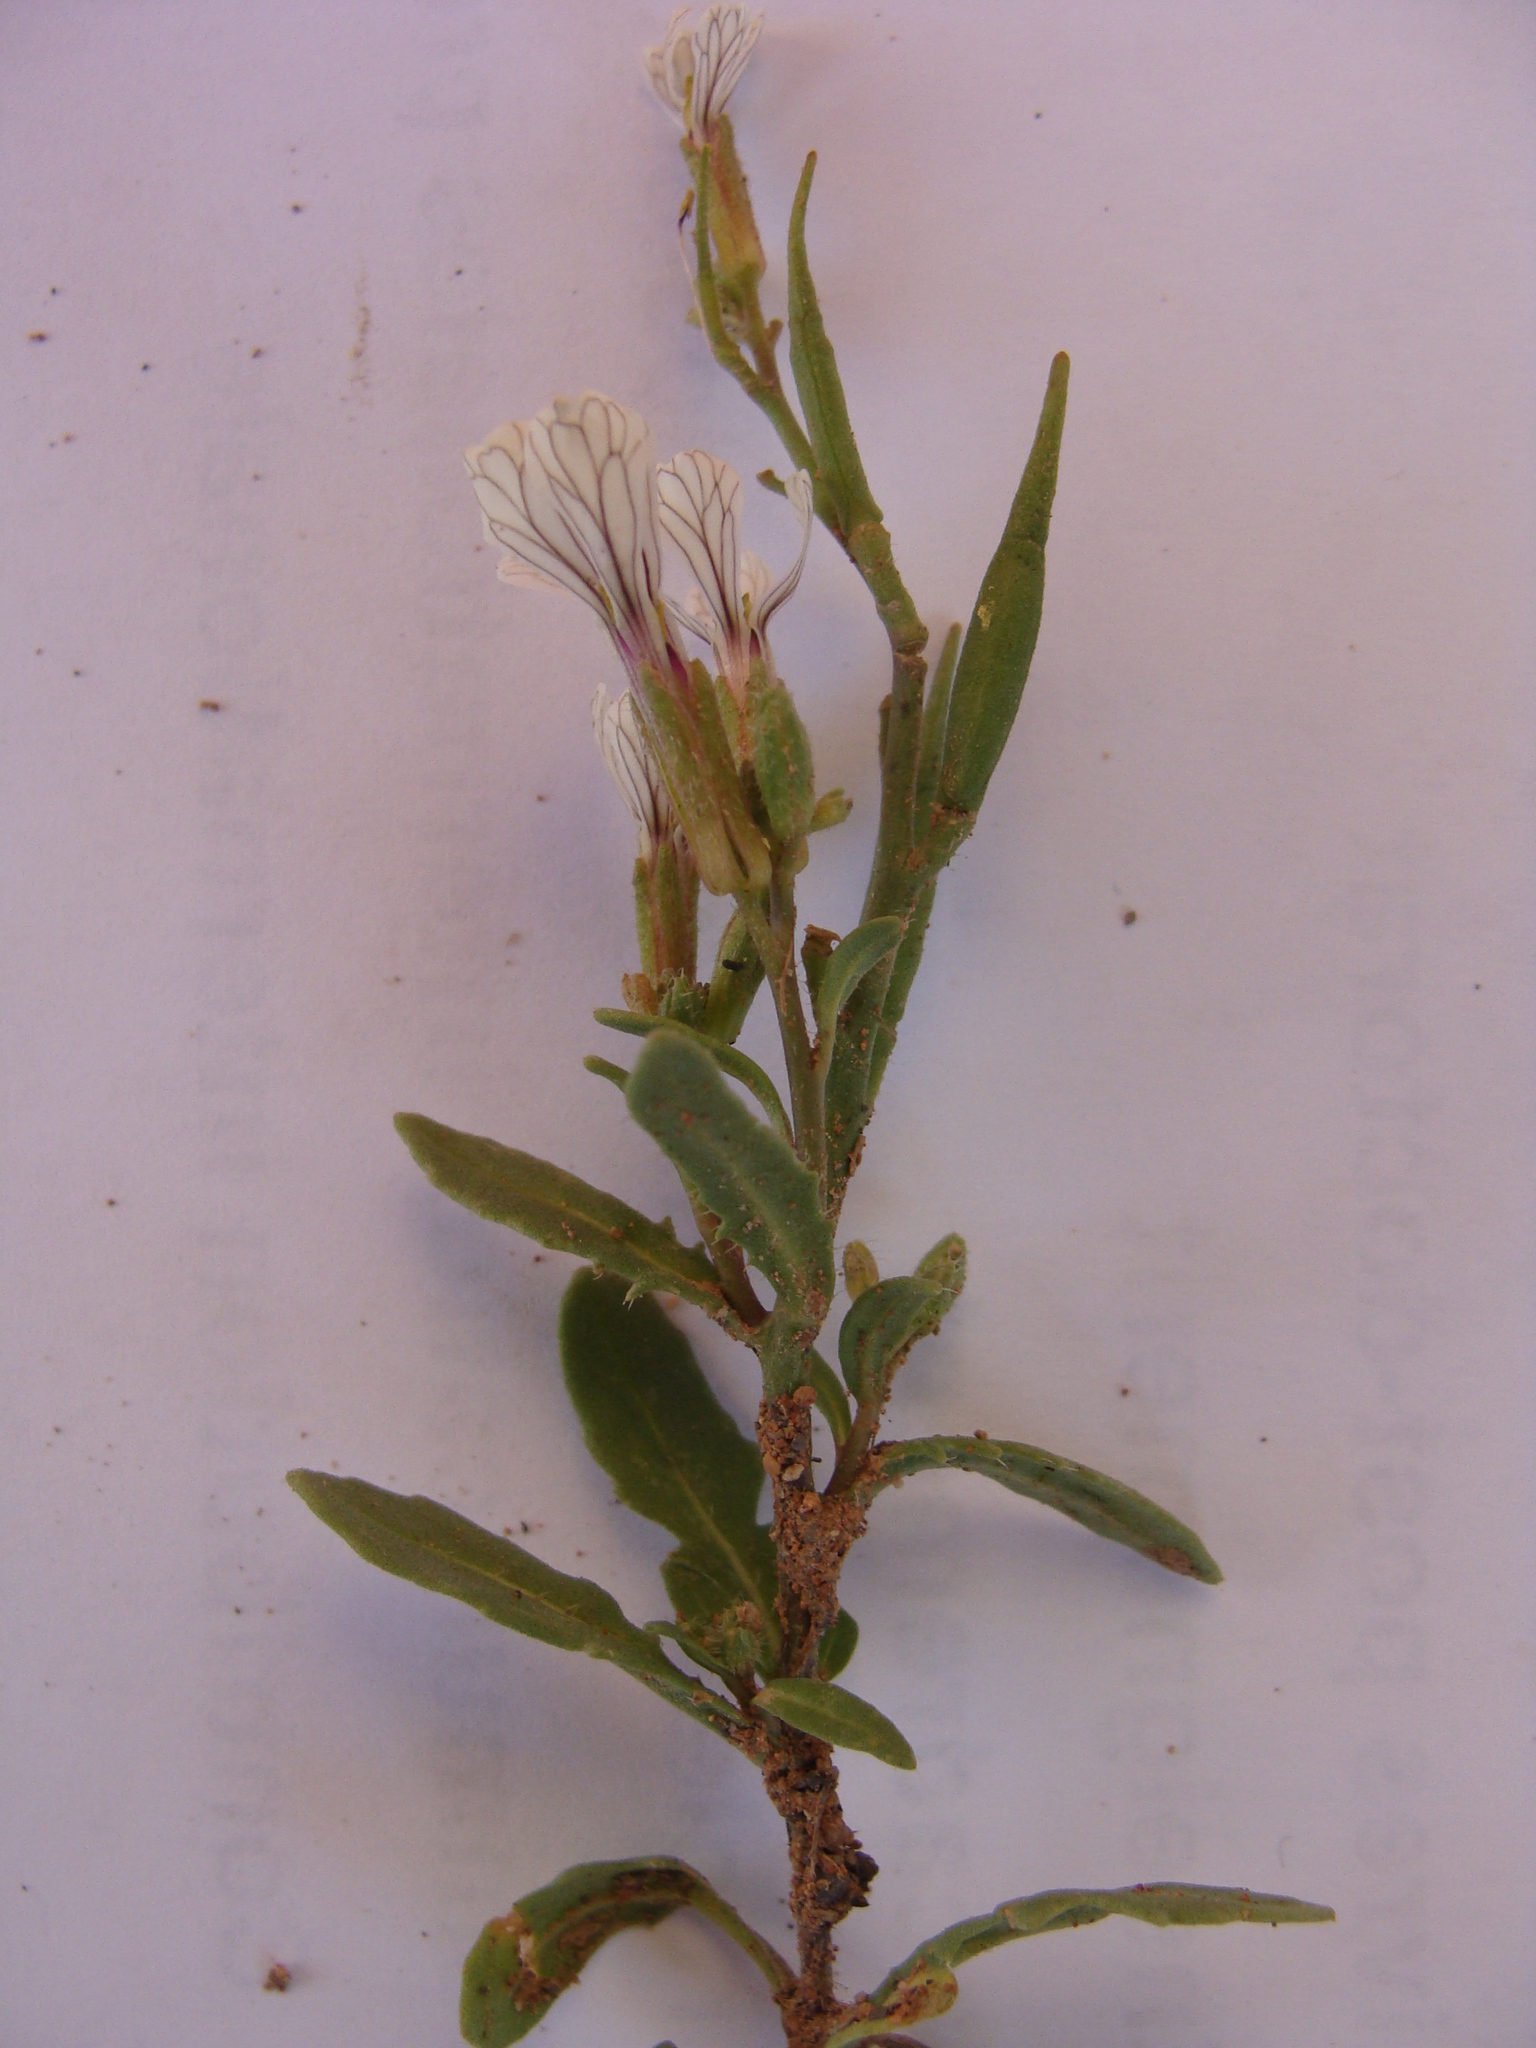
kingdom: Plantae
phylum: Tracheophyta
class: Magnoliopsida
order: Brassicales
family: Brassicaceae
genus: Eruca
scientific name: Eruca vesicaria
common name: Garden rocket
